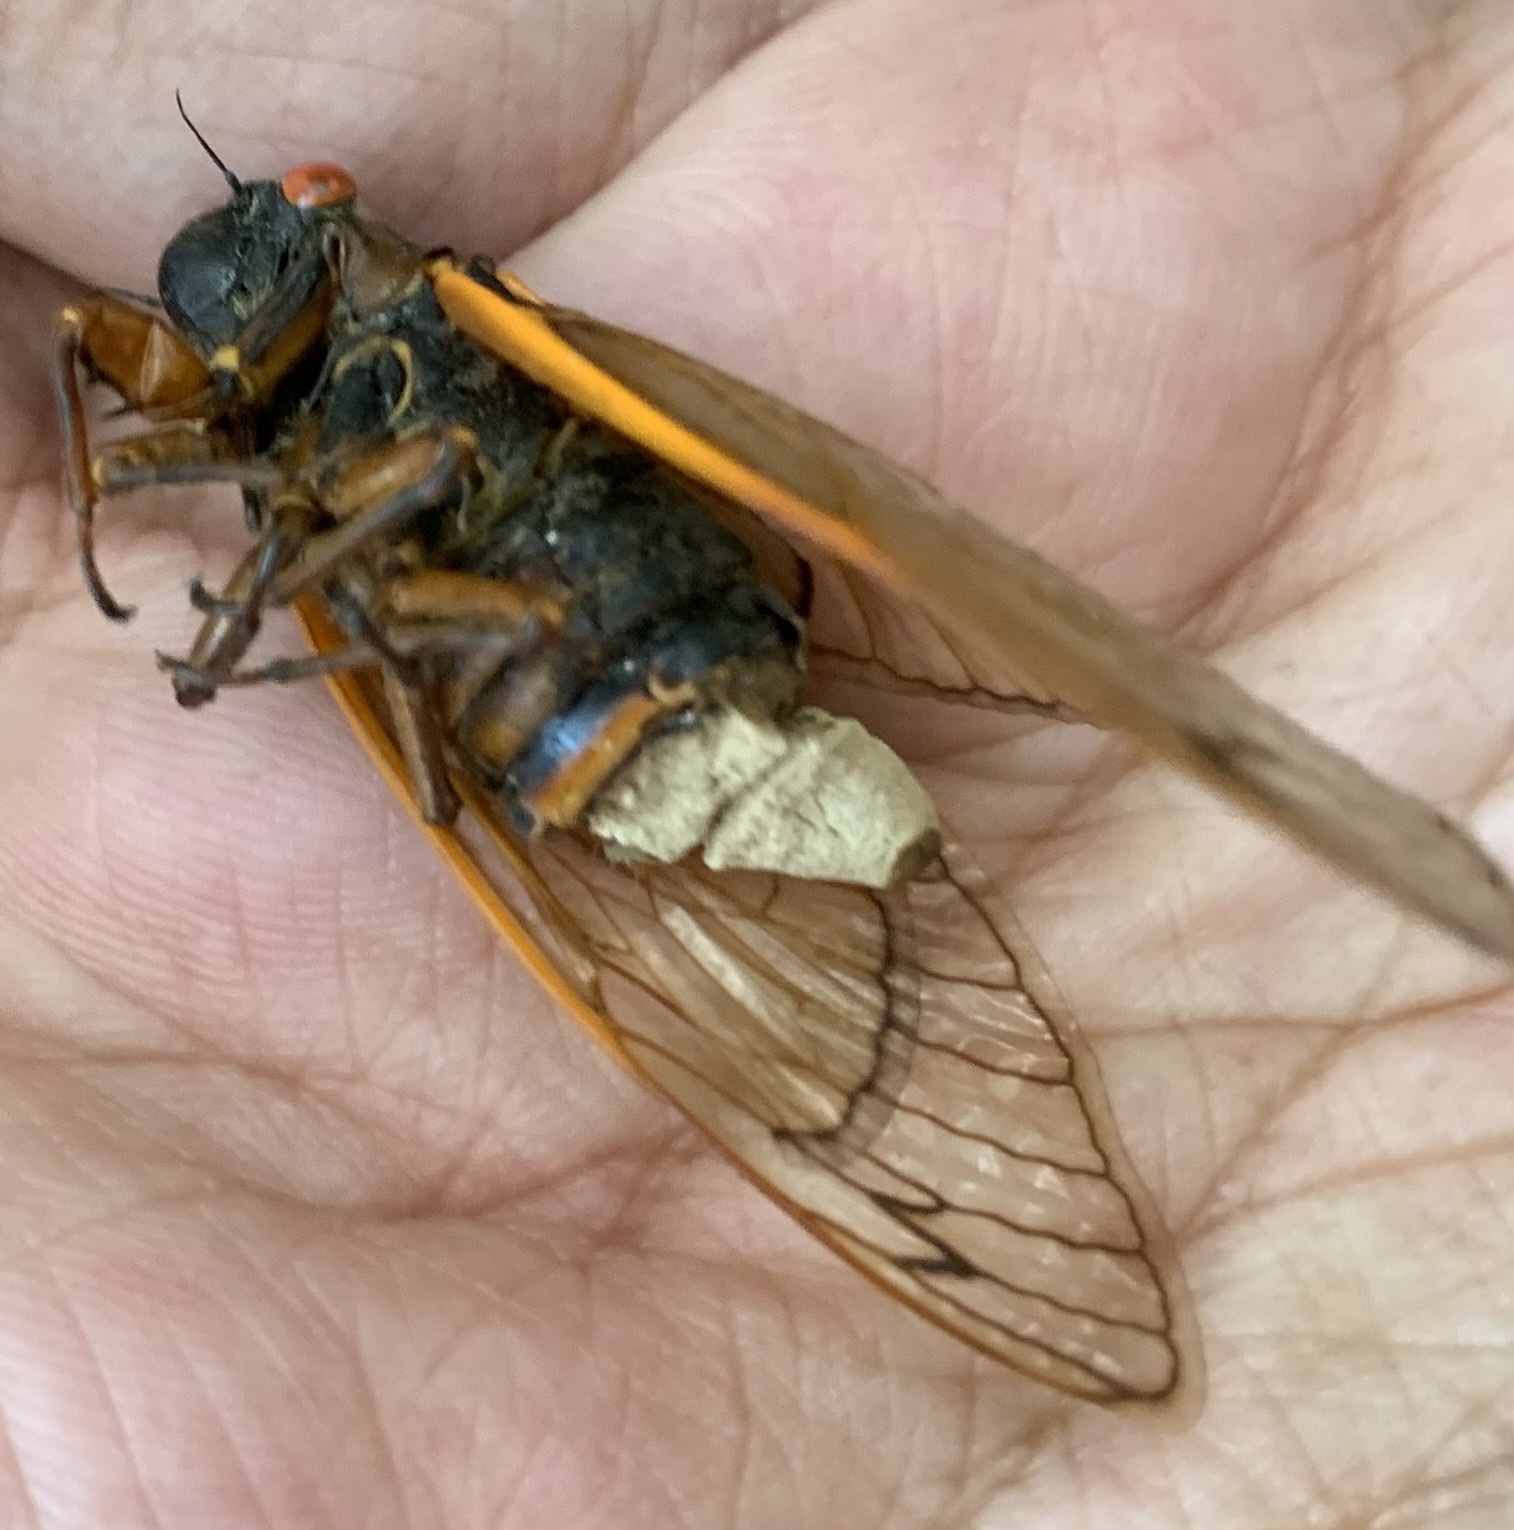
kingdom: Fungi
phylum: Entomophthoromycota
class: Entomophthoromycetes
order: Entomophthorales
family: Entomophthoraceae
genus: Massospora
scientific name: Massospora cicadina
